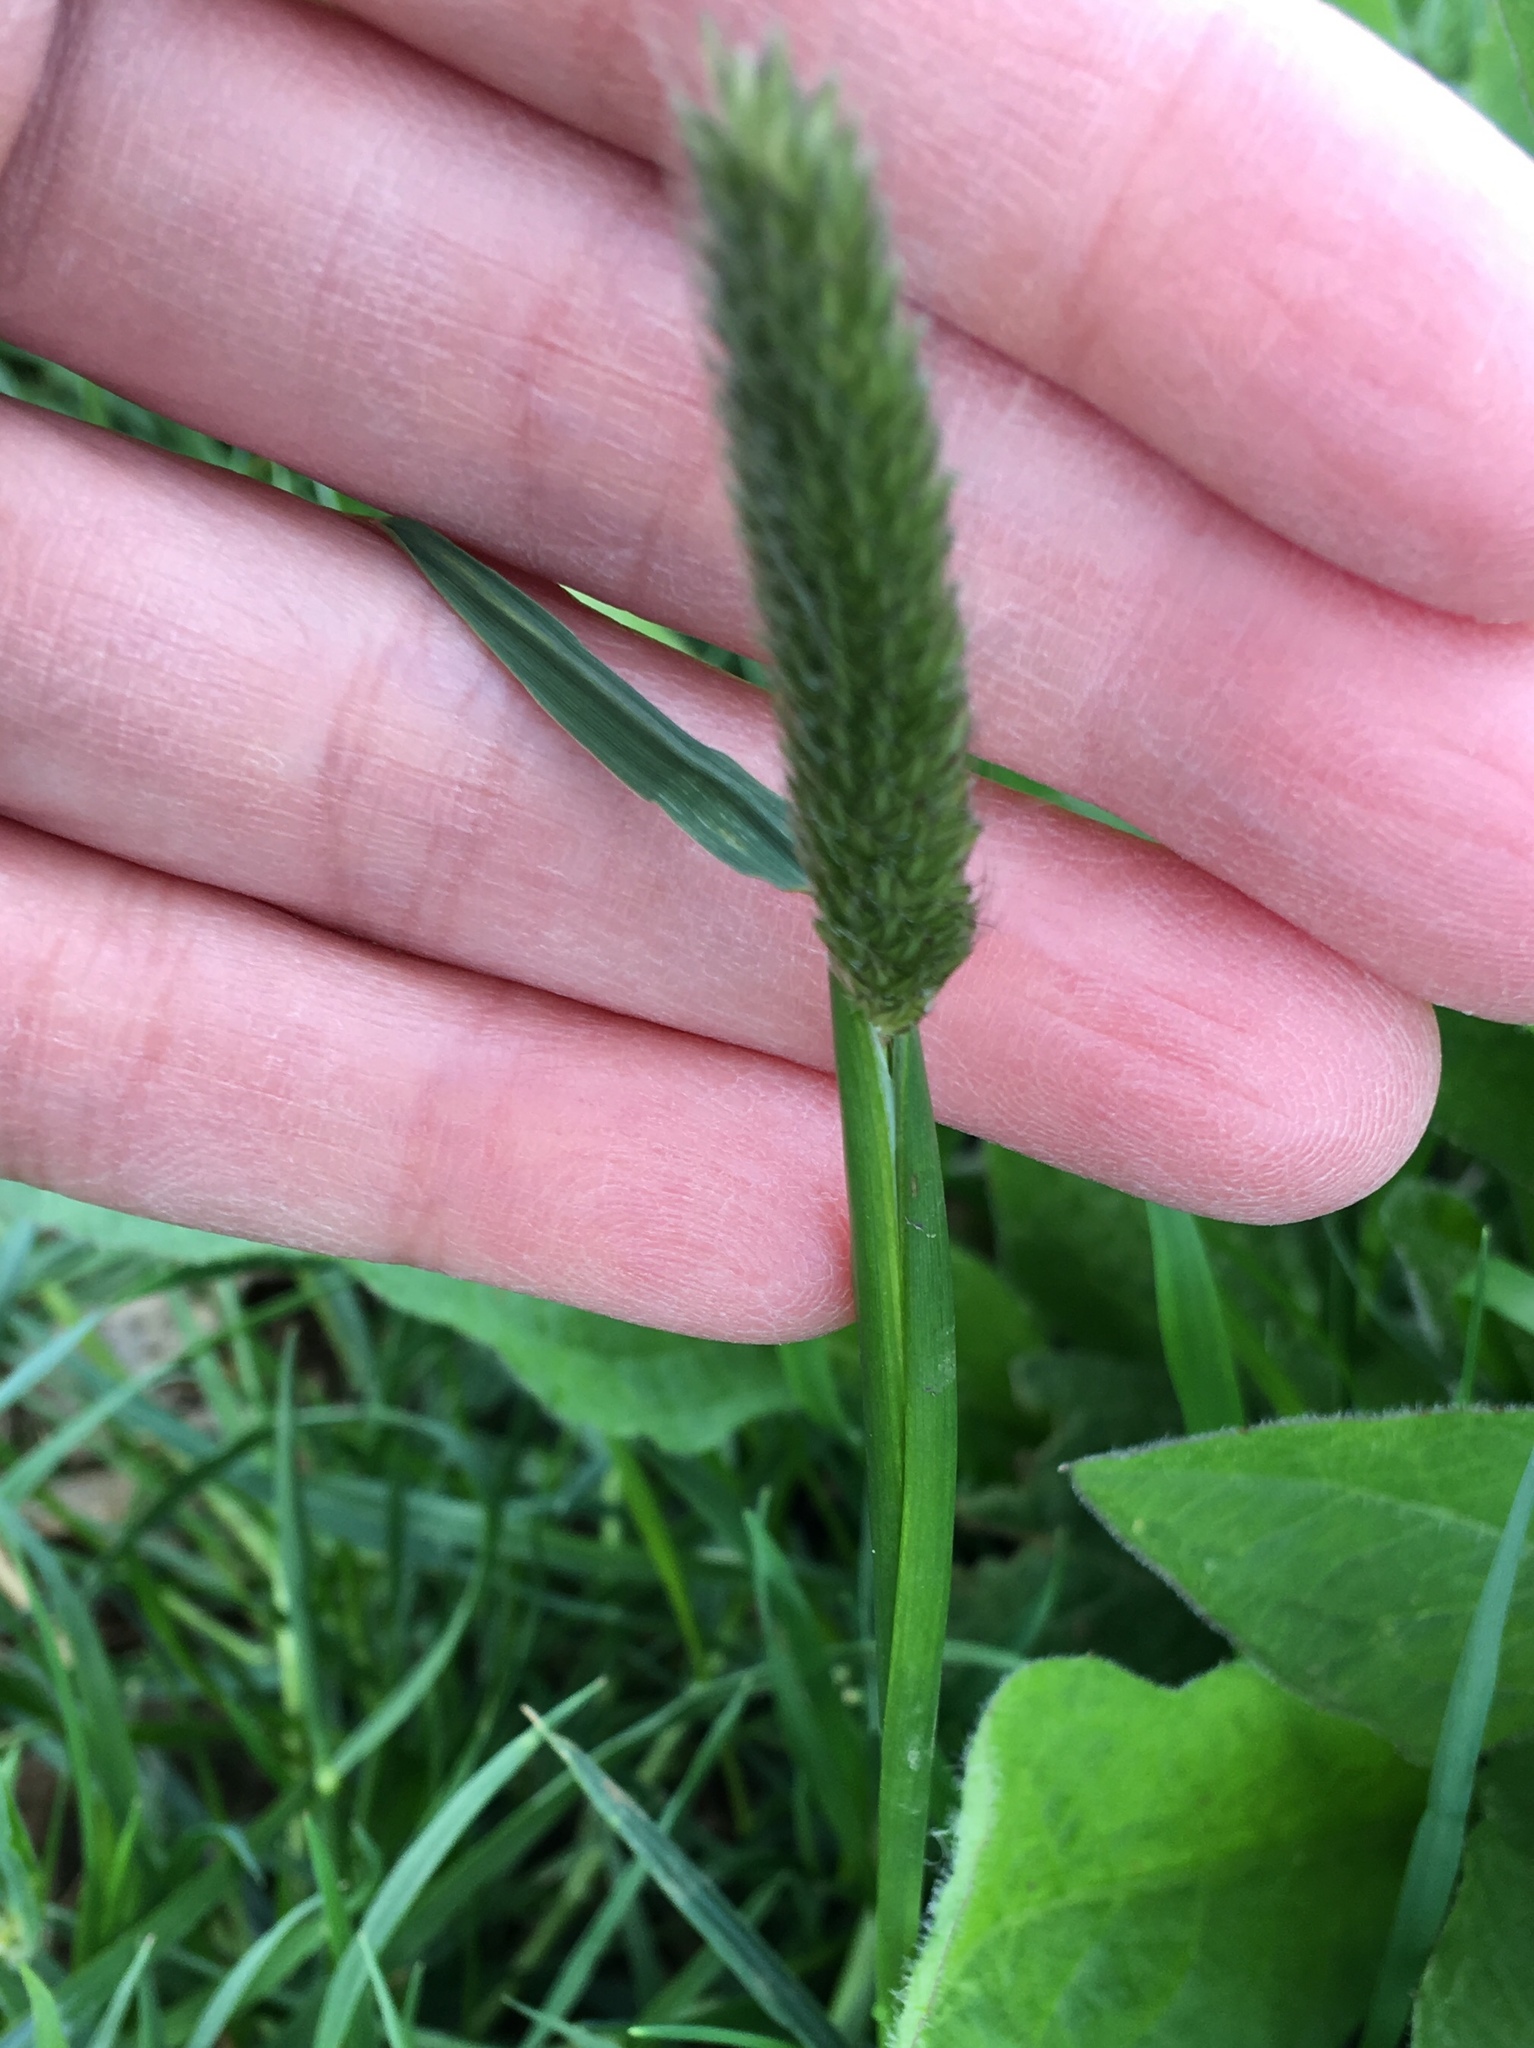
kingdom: Plantae
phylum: Tracheophyta
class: Liliopsida
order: Poales
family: Poaceae
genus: Alopecurus
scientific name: Alopecurus pratensis
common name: Meadow foxtail
